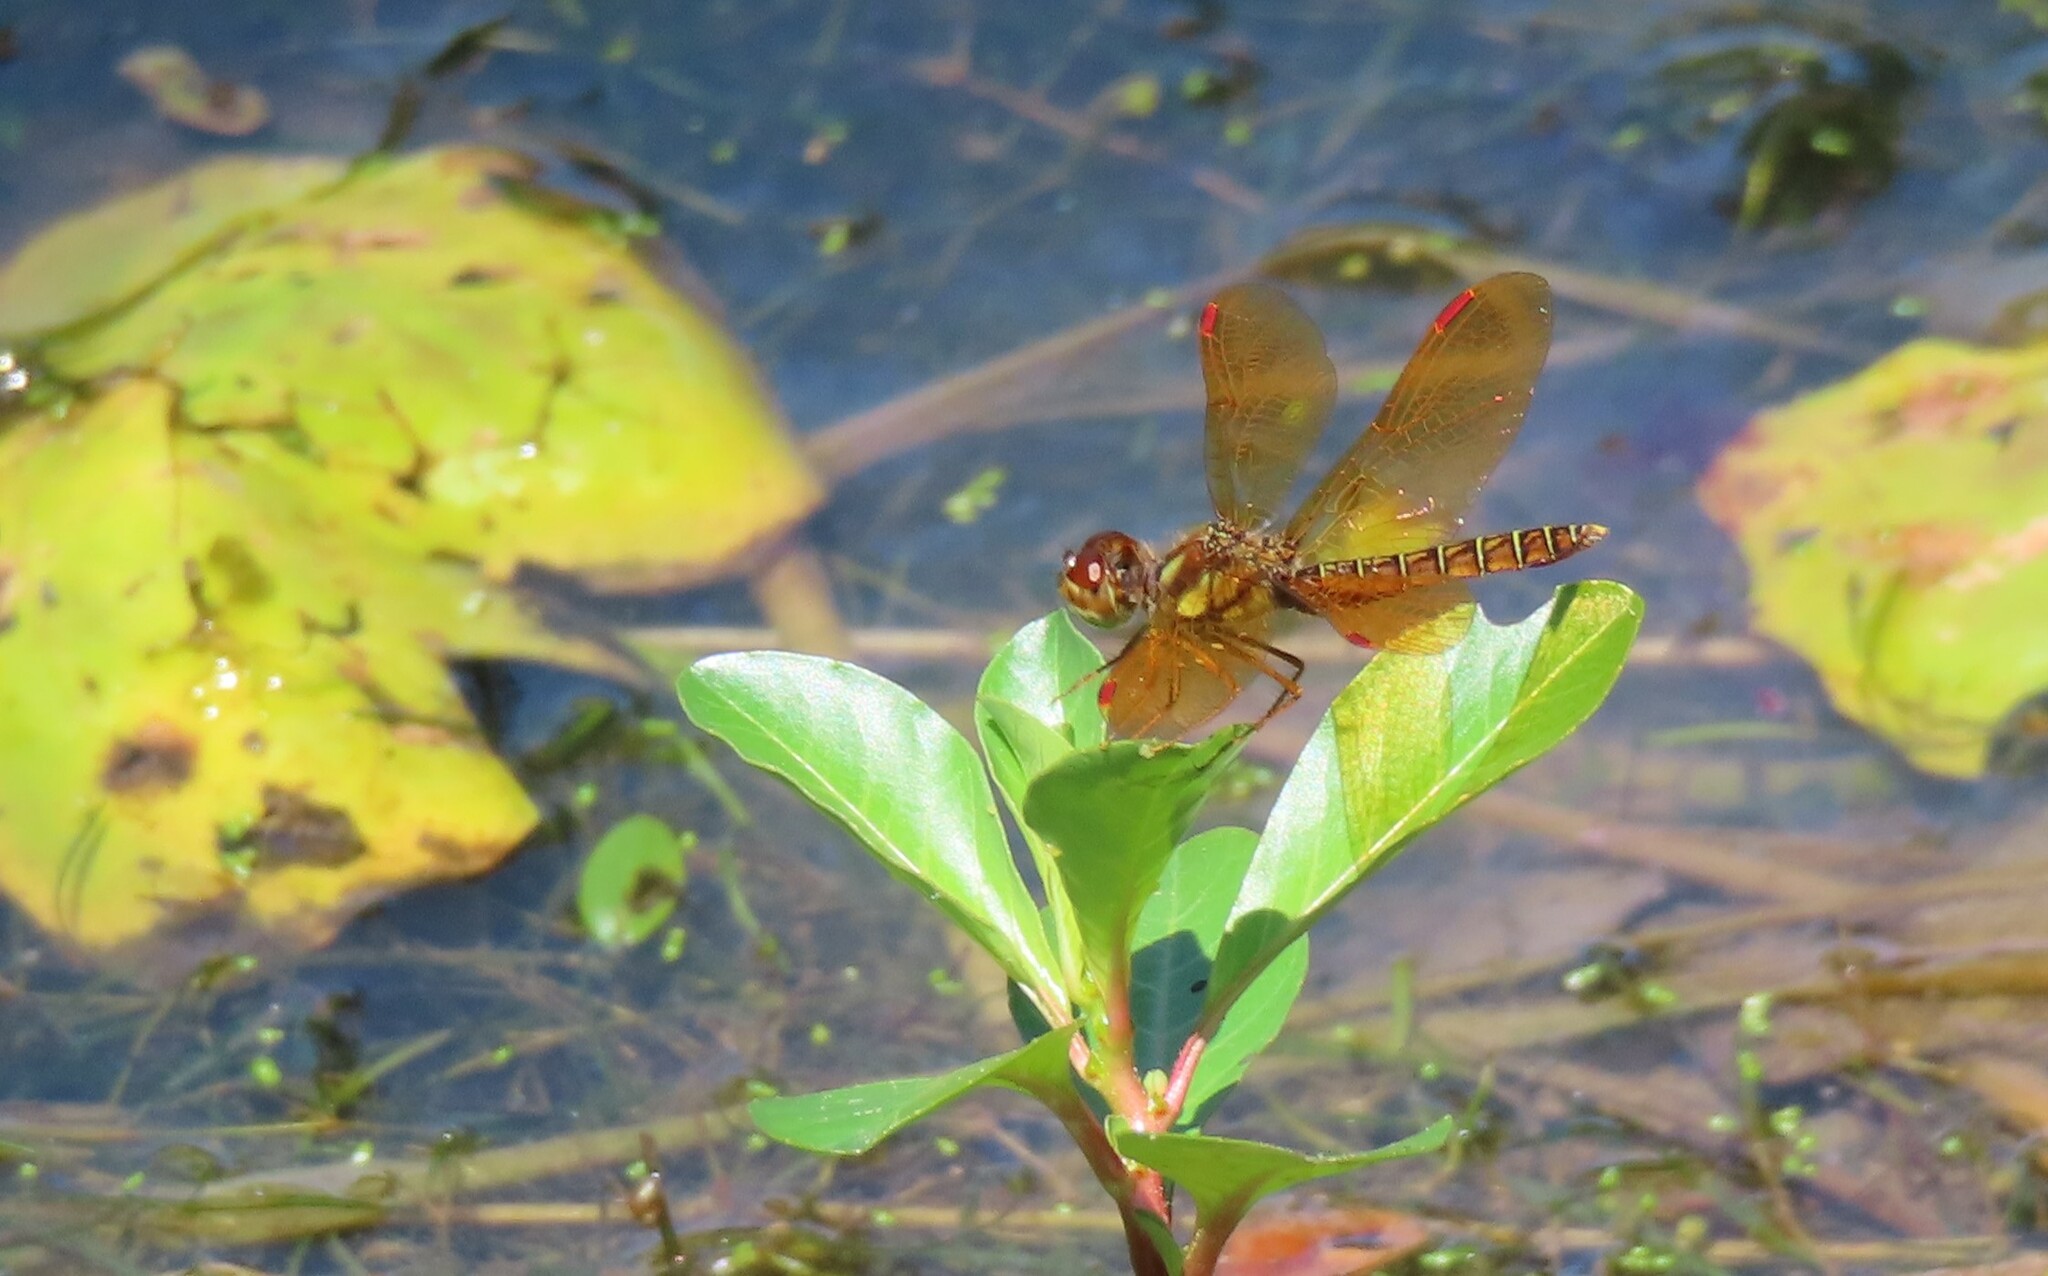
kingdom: Animalia
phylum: Arthropoda
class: Insecta
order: Odonata
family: Libellulidae
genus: Perithemis
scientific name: Perithemis tenera
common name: Eastern amberwing
